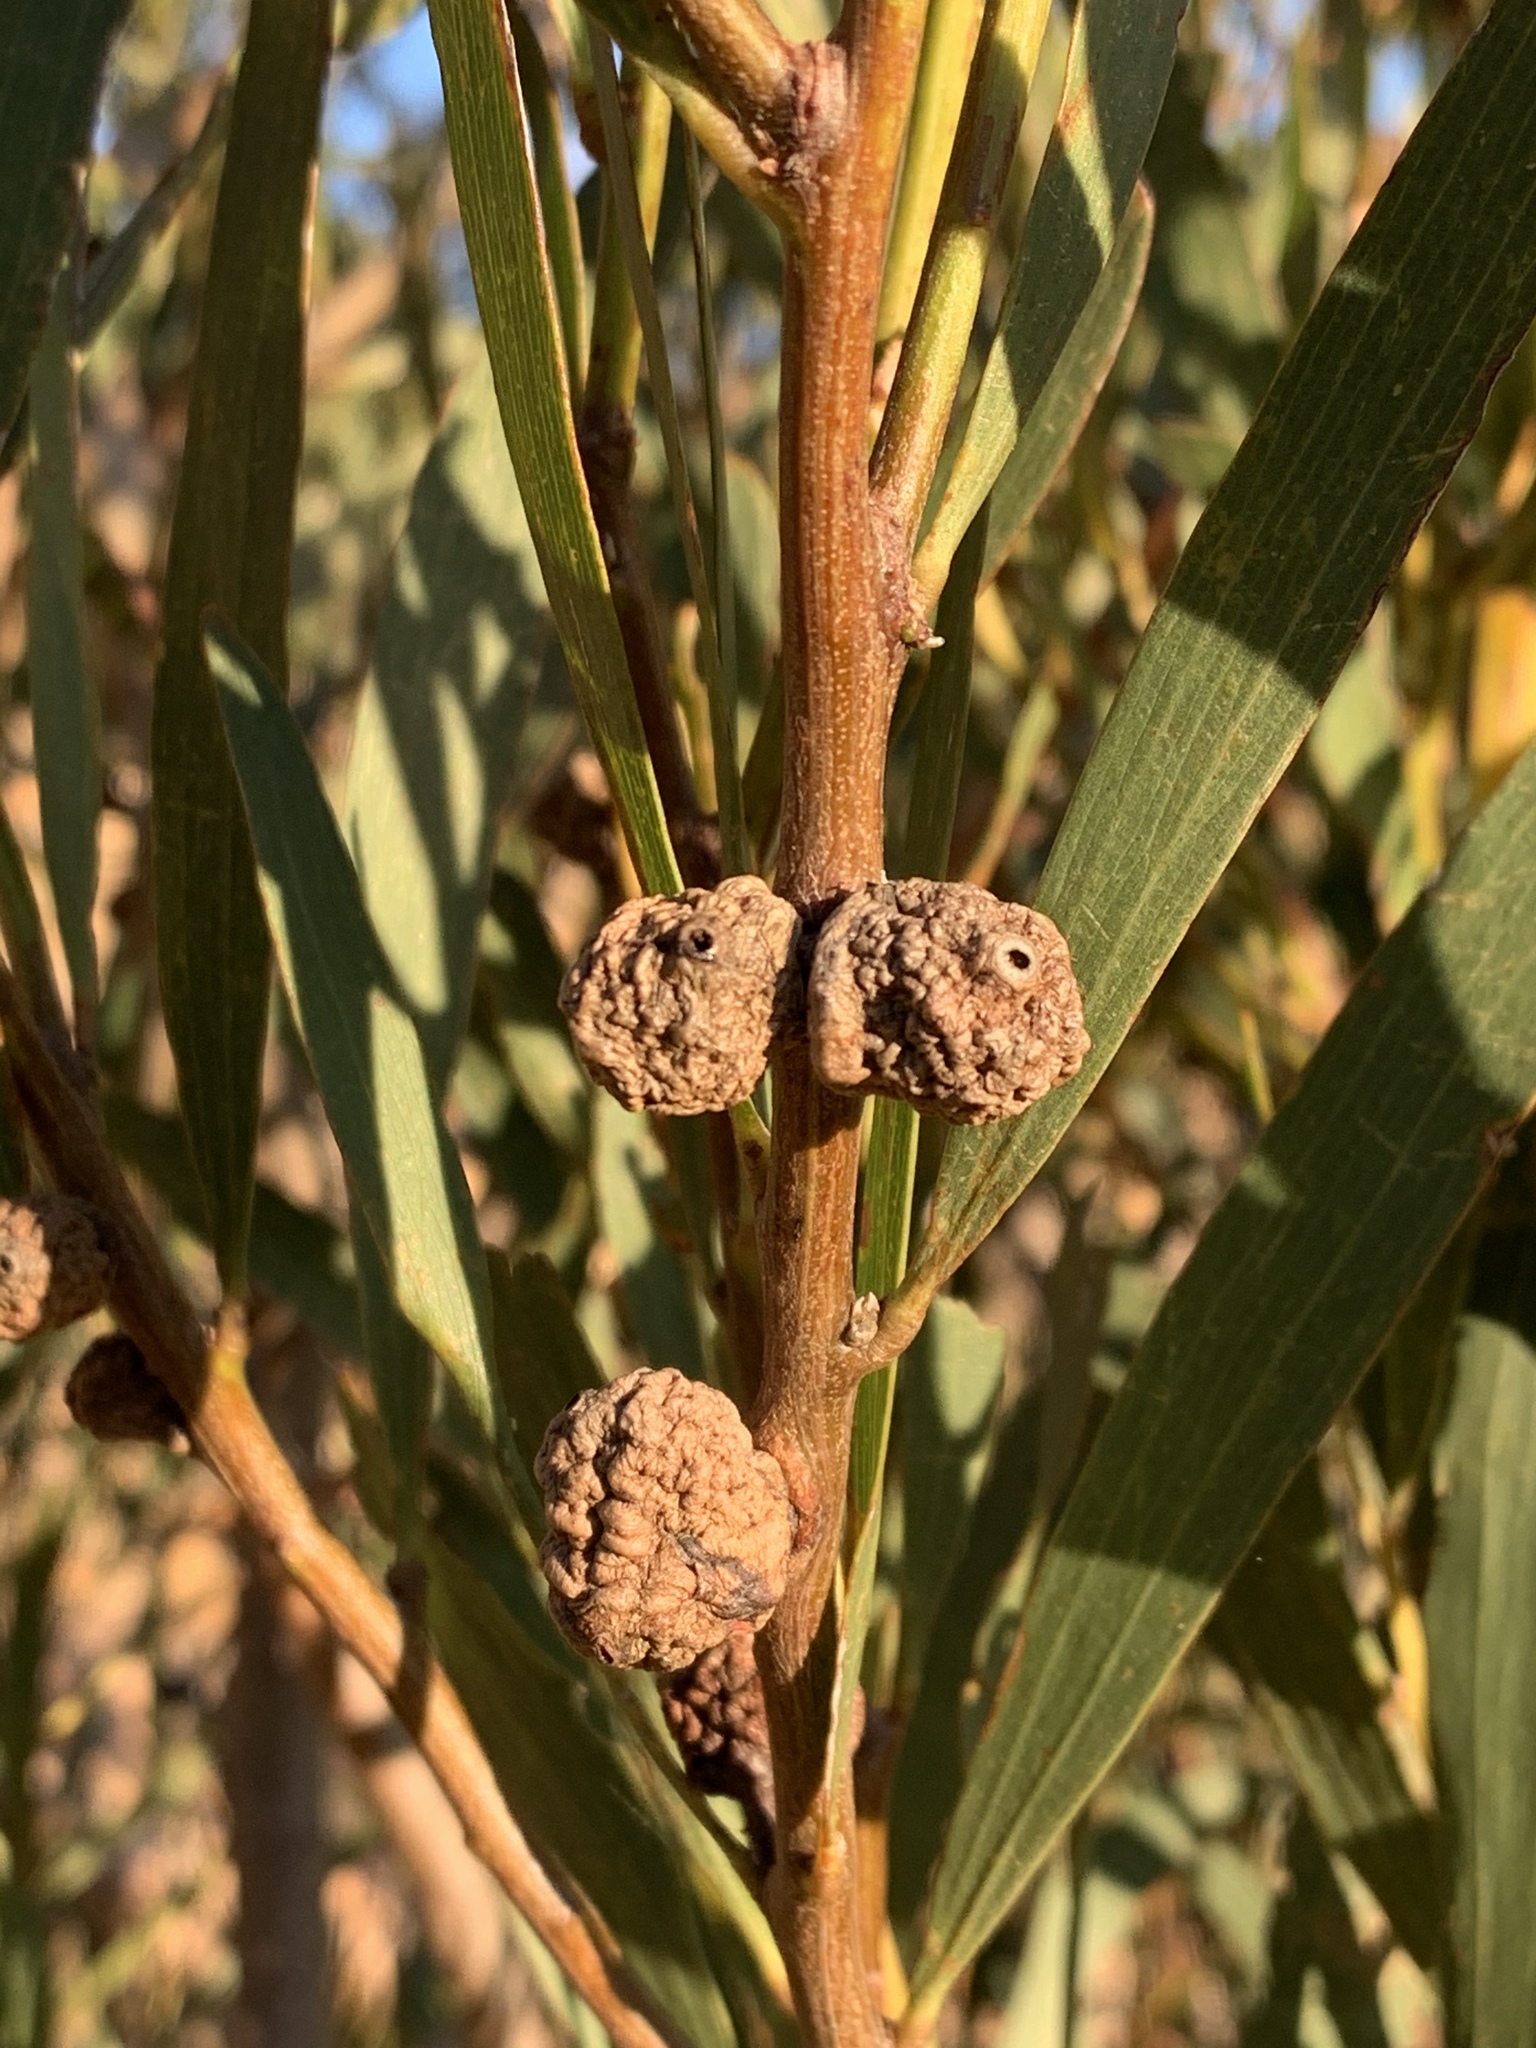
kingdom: Animalia
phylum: Arthropoda
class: Insecta
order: Hymenoptera
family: Pteromalidae
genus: Trichilogaster
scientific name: Trichilogaster acaciaelongifoliae
